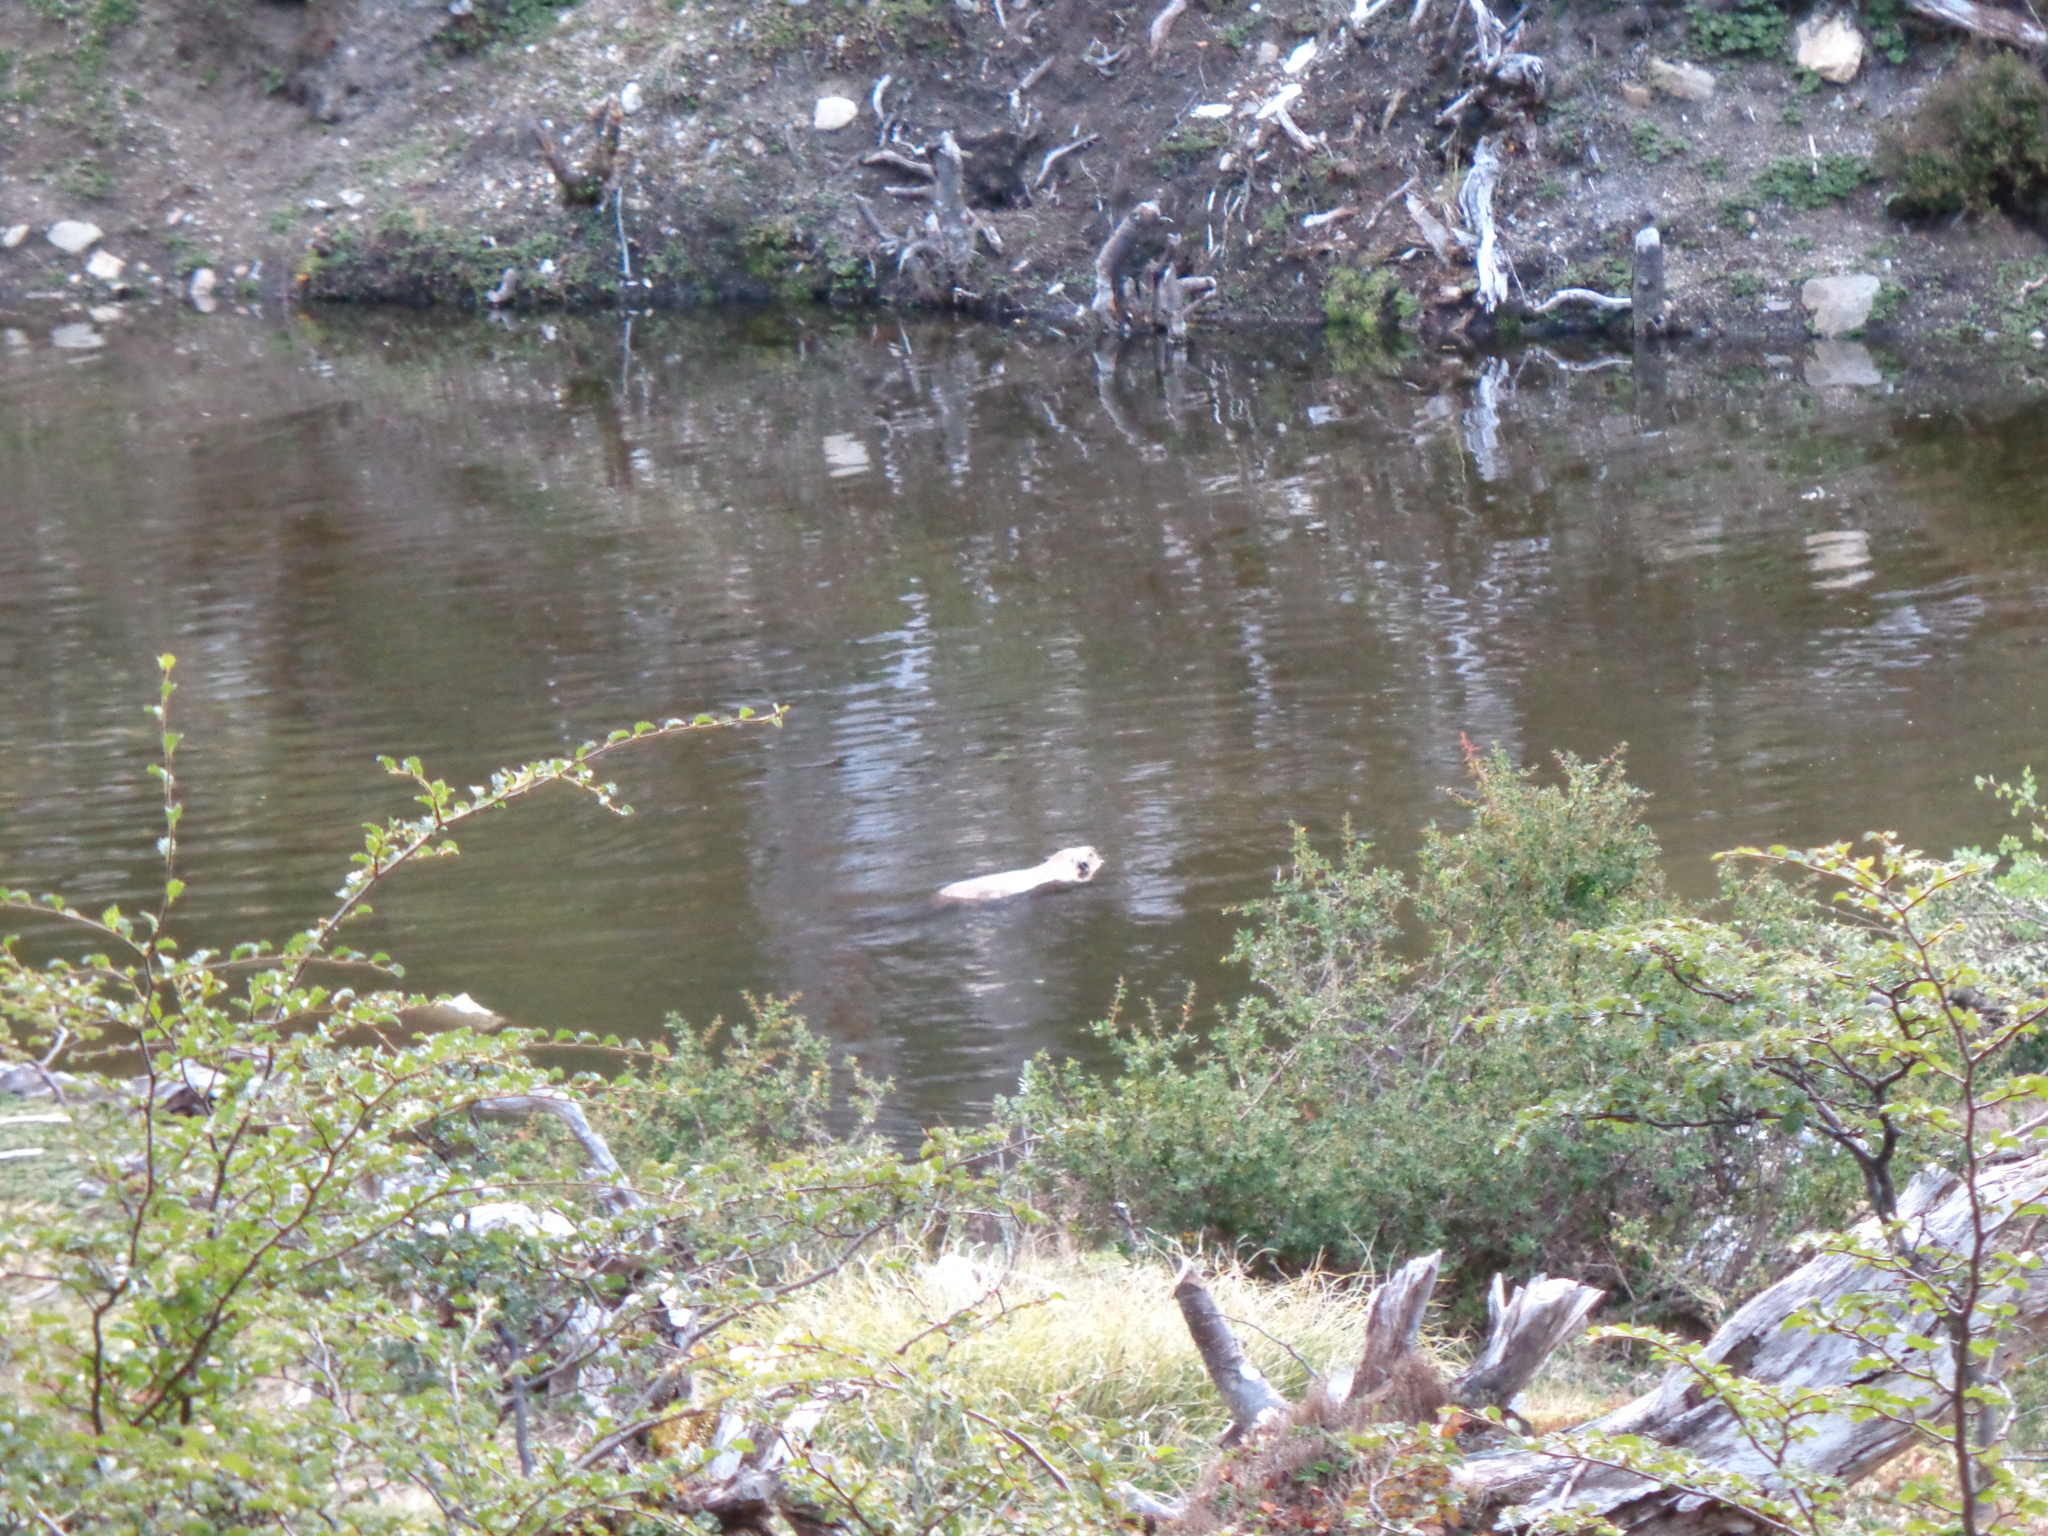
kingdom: Animalia
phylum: Chordata
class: Mammalia
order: Rodentia
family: Castoridae
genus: Castor
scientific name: Castor canadensis
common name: American beaver
